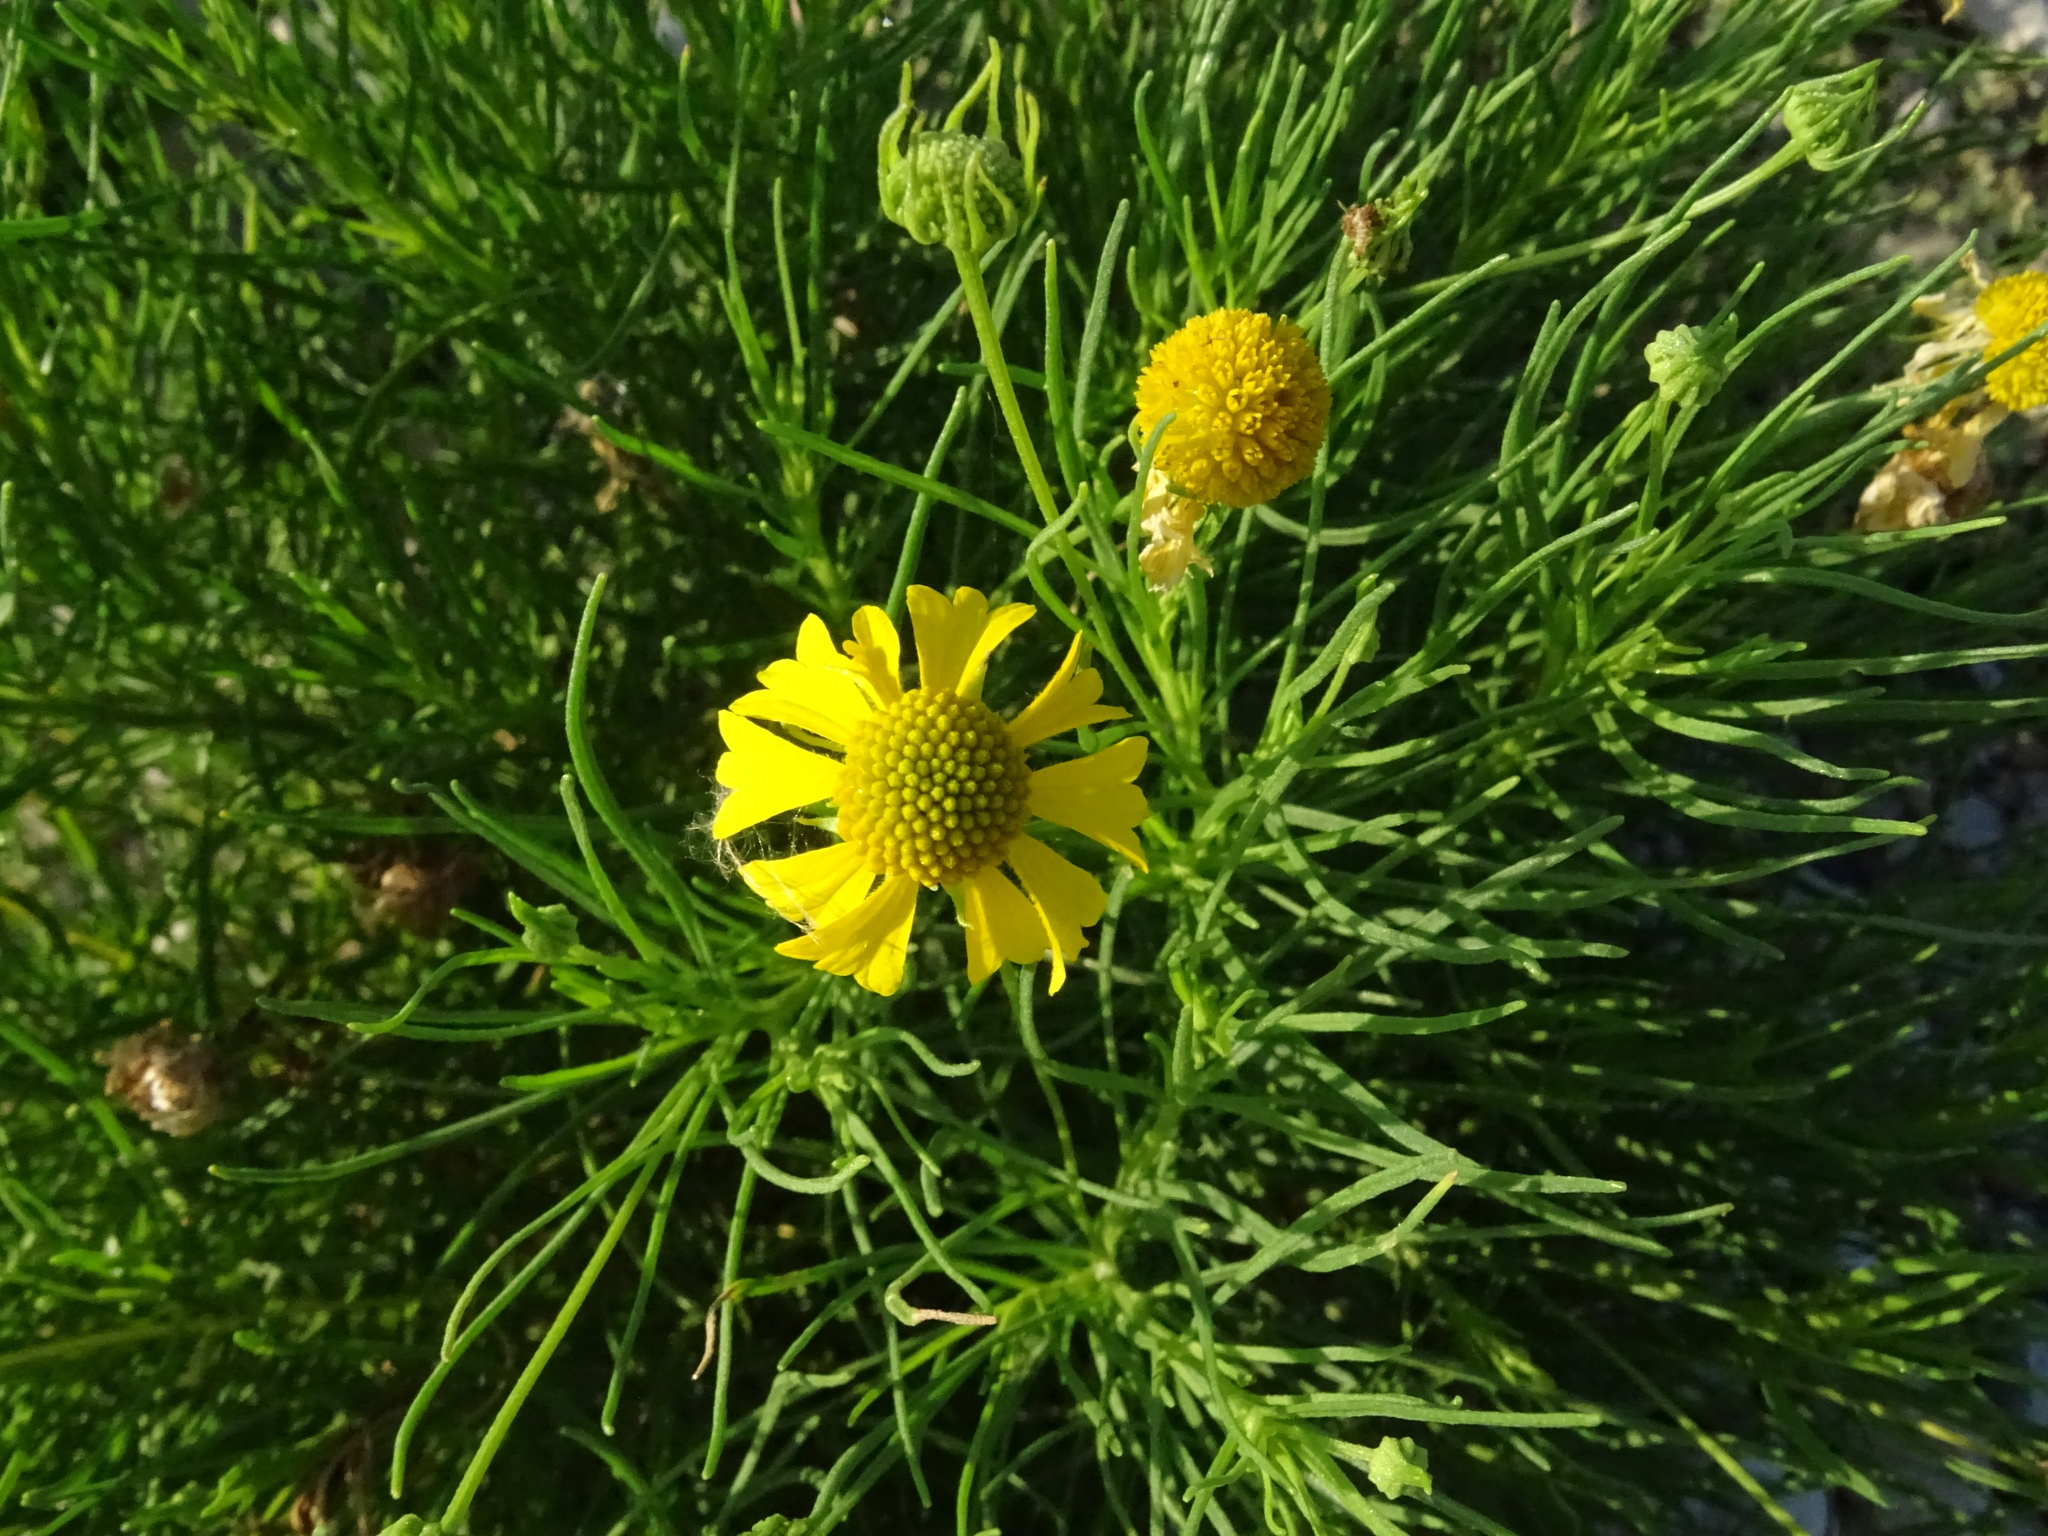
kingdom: Plantae
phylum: Tracheophyta
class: Magnoliopsida
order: Asterales
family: Asteraceae
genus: Helenium
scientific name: Helenium amarum
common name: Bitter sneezeweed
